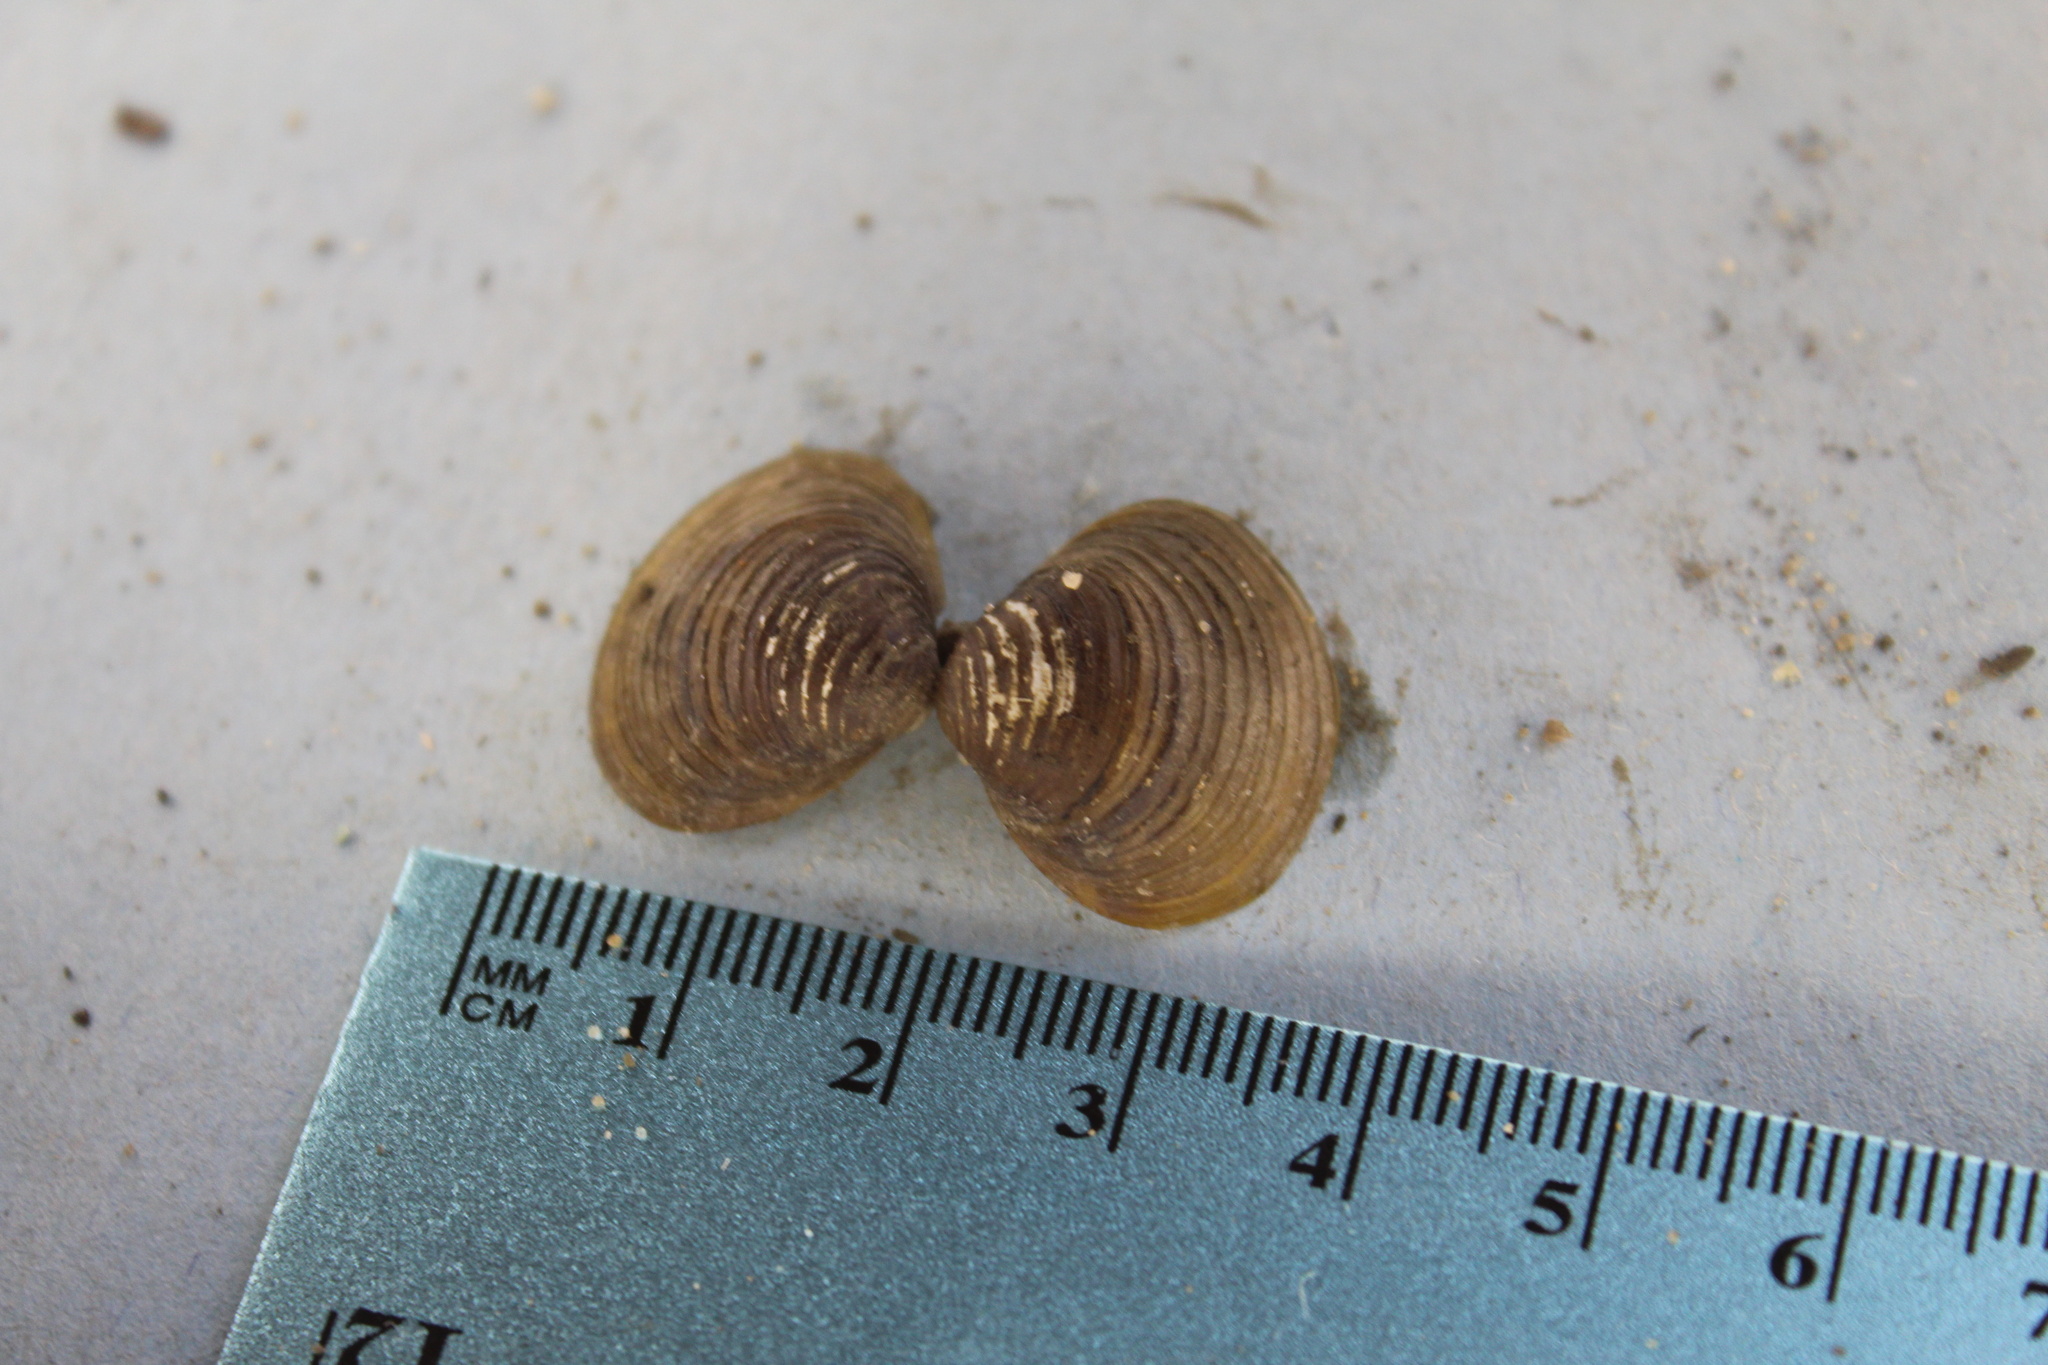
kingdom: Animalia
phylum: Mollusca
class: Bivalvia
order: Venerida
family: Cyrenidae
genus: Corbicula
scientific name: Corbicula fluminea
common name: Asian clam
